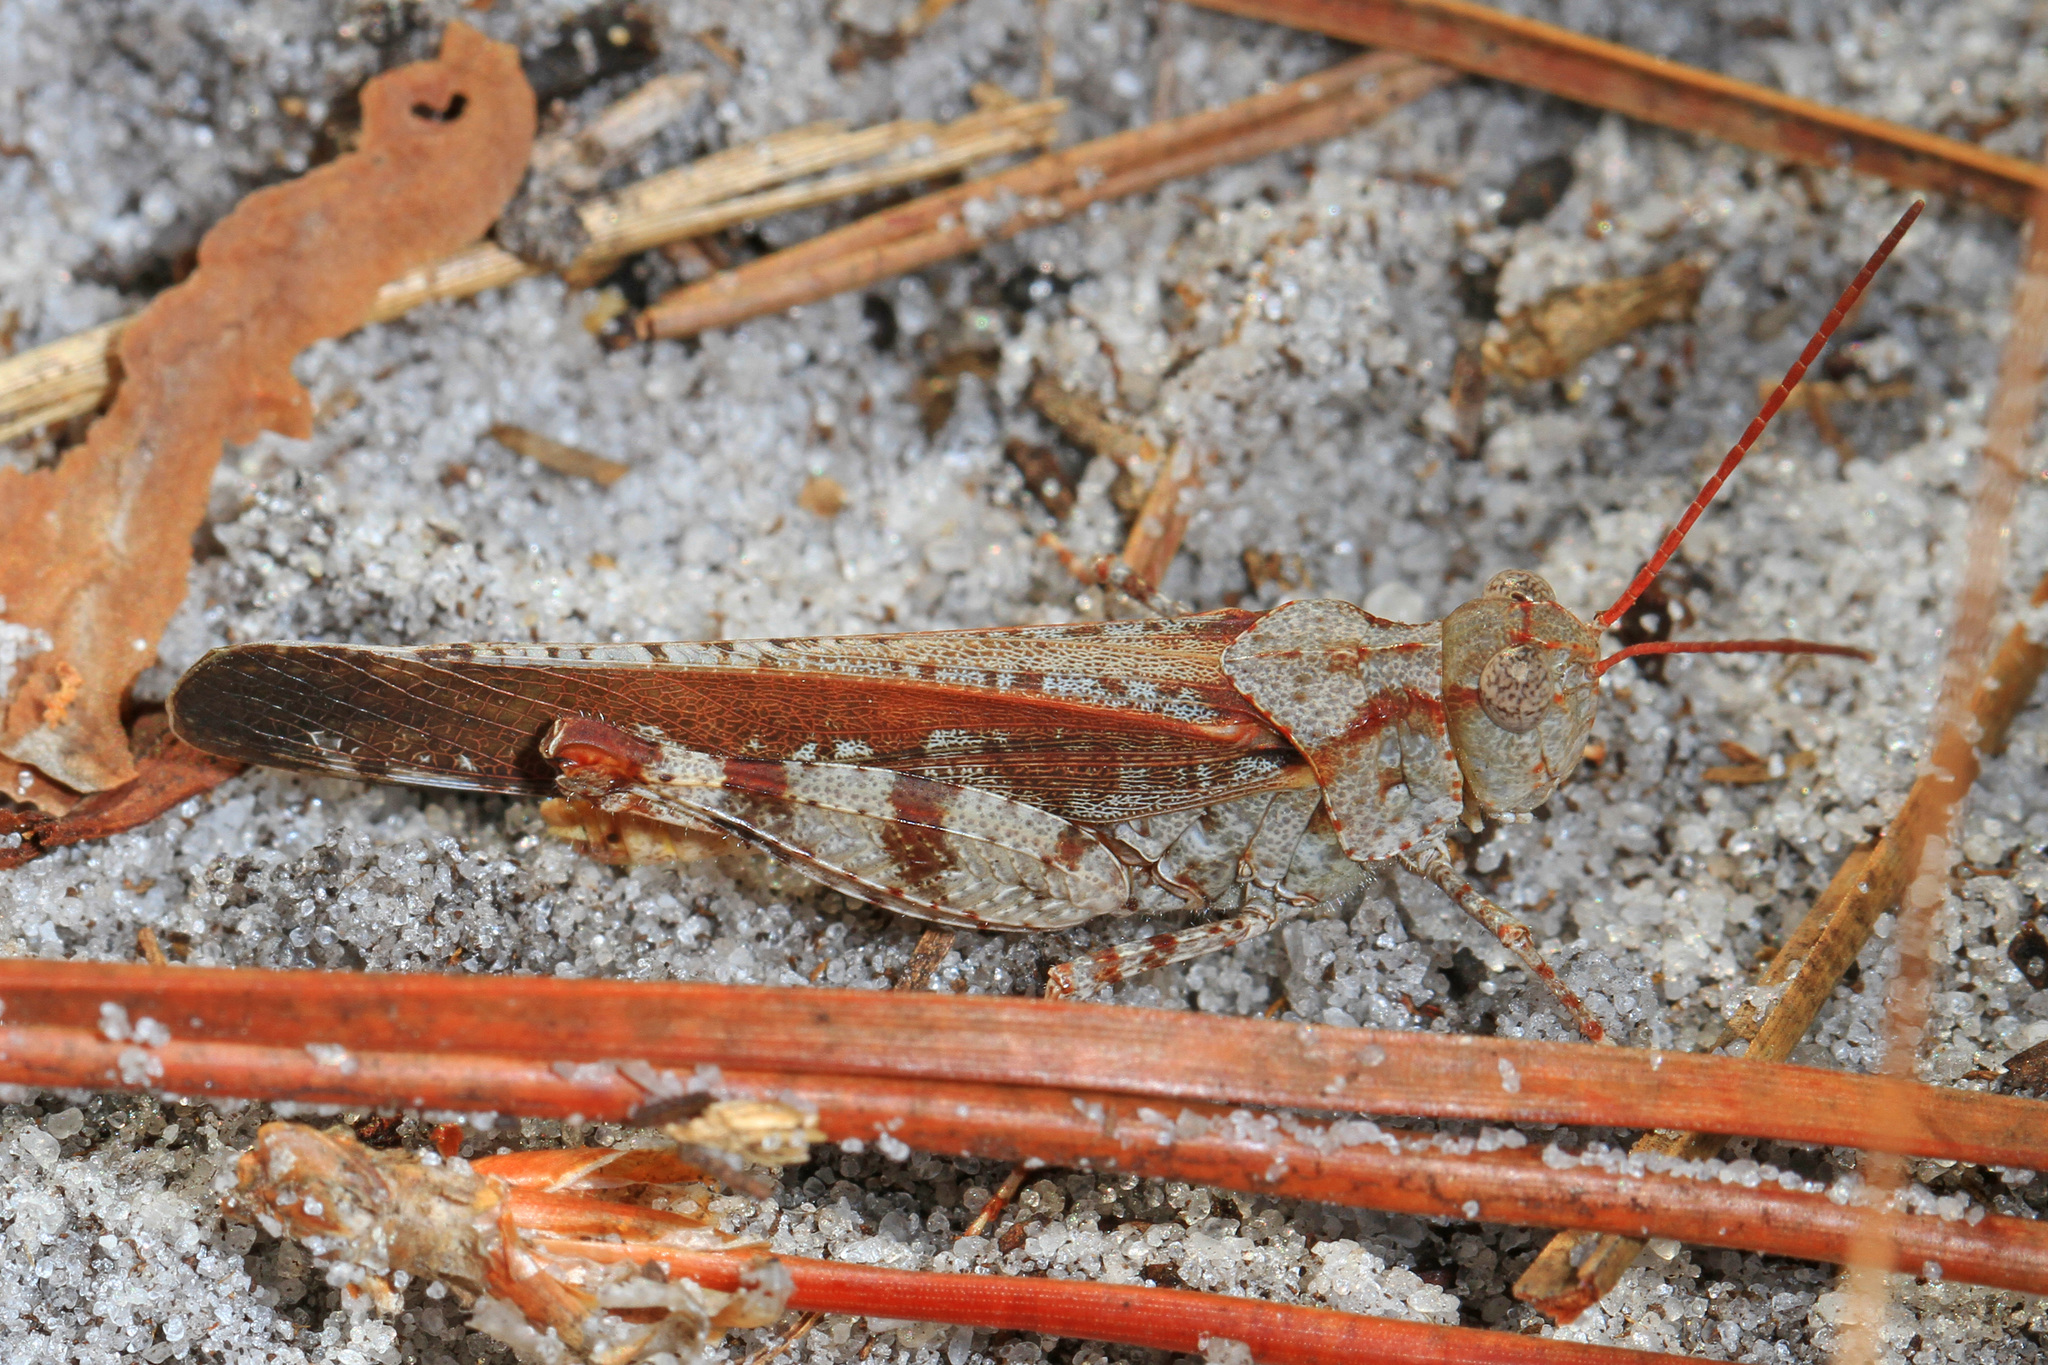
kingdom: Animalia
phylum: Arthropoda
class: Insecta
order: Orthoptera
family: Acrididae
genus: Spharagemon
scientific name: Spharagemon marmoratum
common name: Marbled grasshopper
